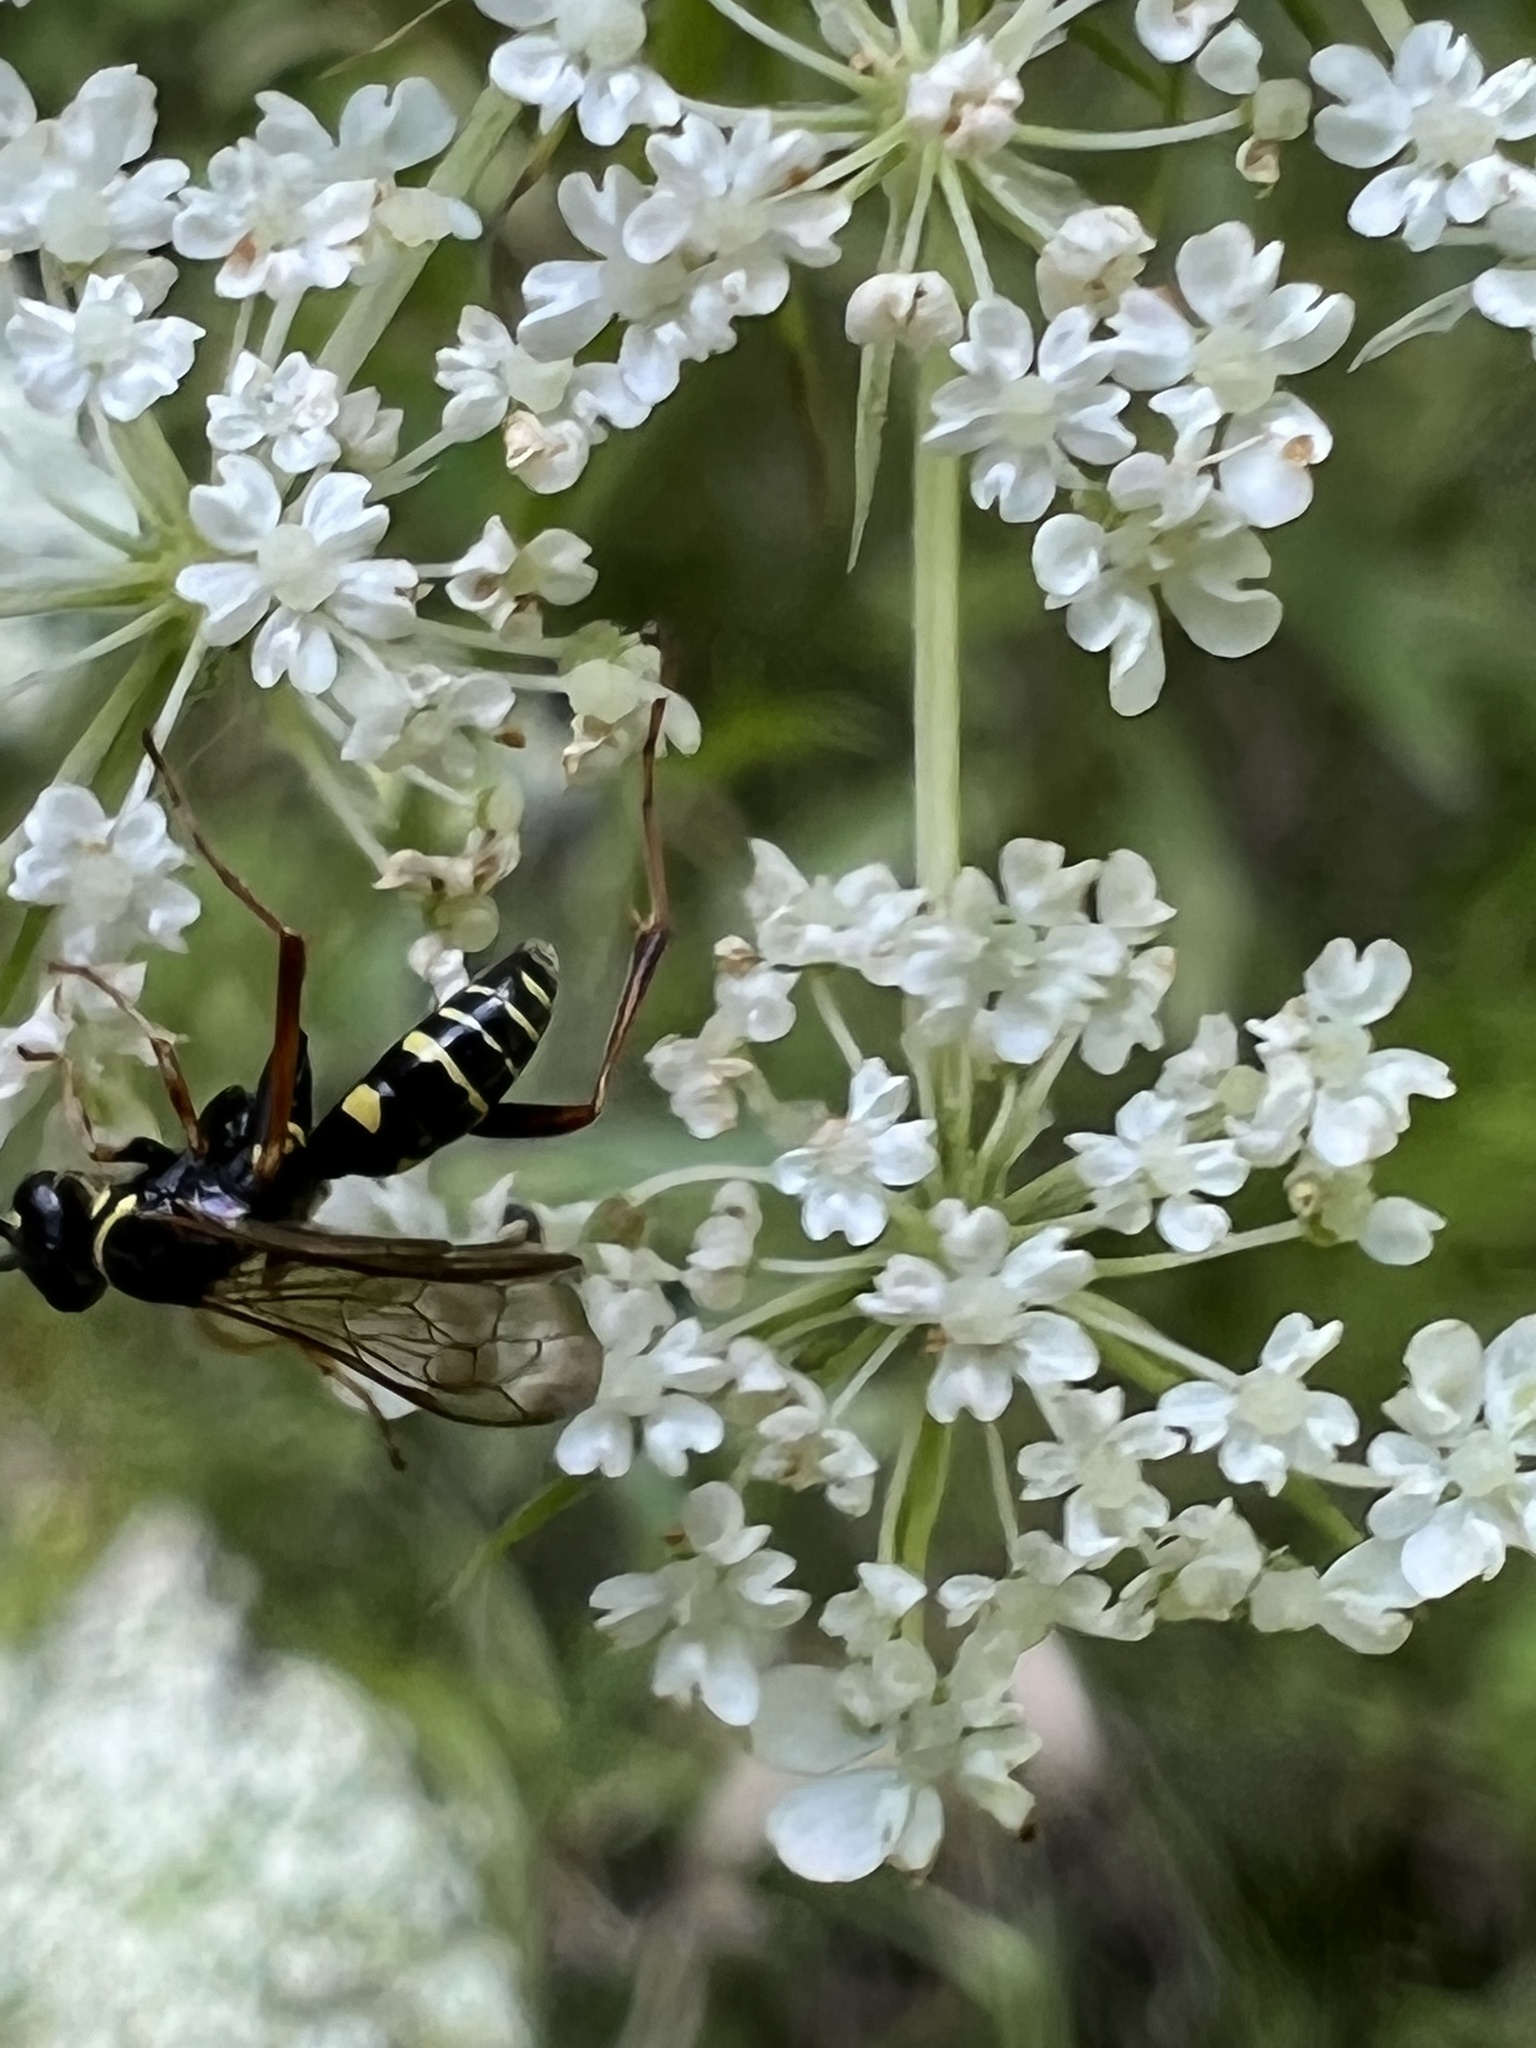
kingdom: Animalia
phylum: Arthropoda
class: Insecta
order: Hymenoptera
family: Pompilidae
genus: Ceropales
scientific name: Ceropales maculata
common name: Spider wasp
